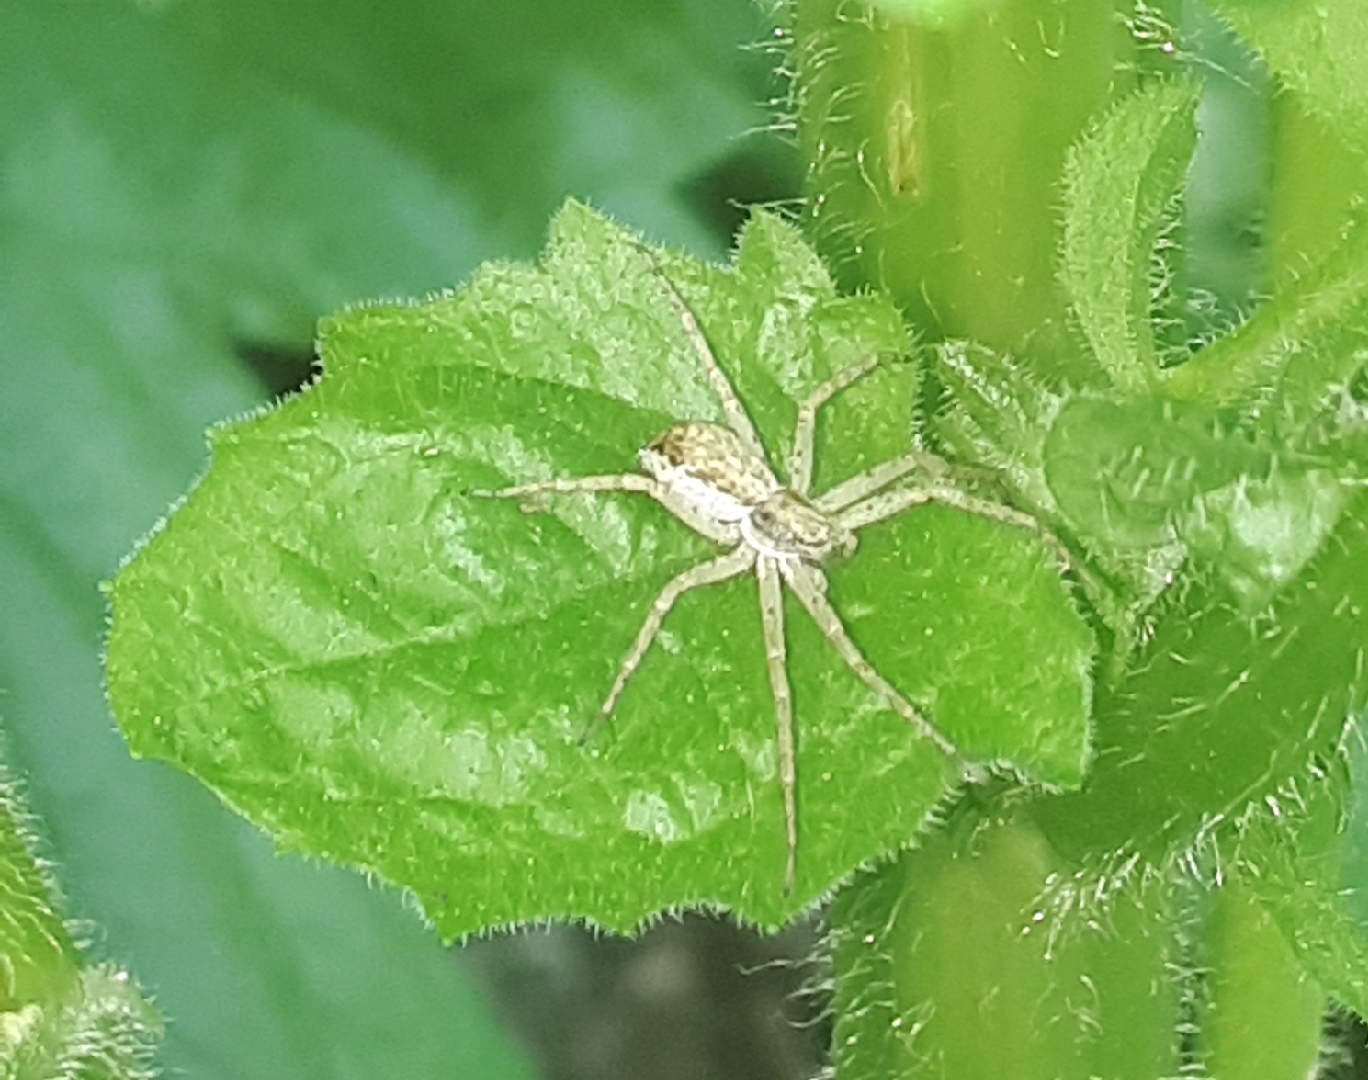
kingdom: Animalia
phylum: Arthropoda
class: Arachnida
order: Araneae
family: Philodromidae
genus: Philodromus
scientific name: Philodromus dispar
